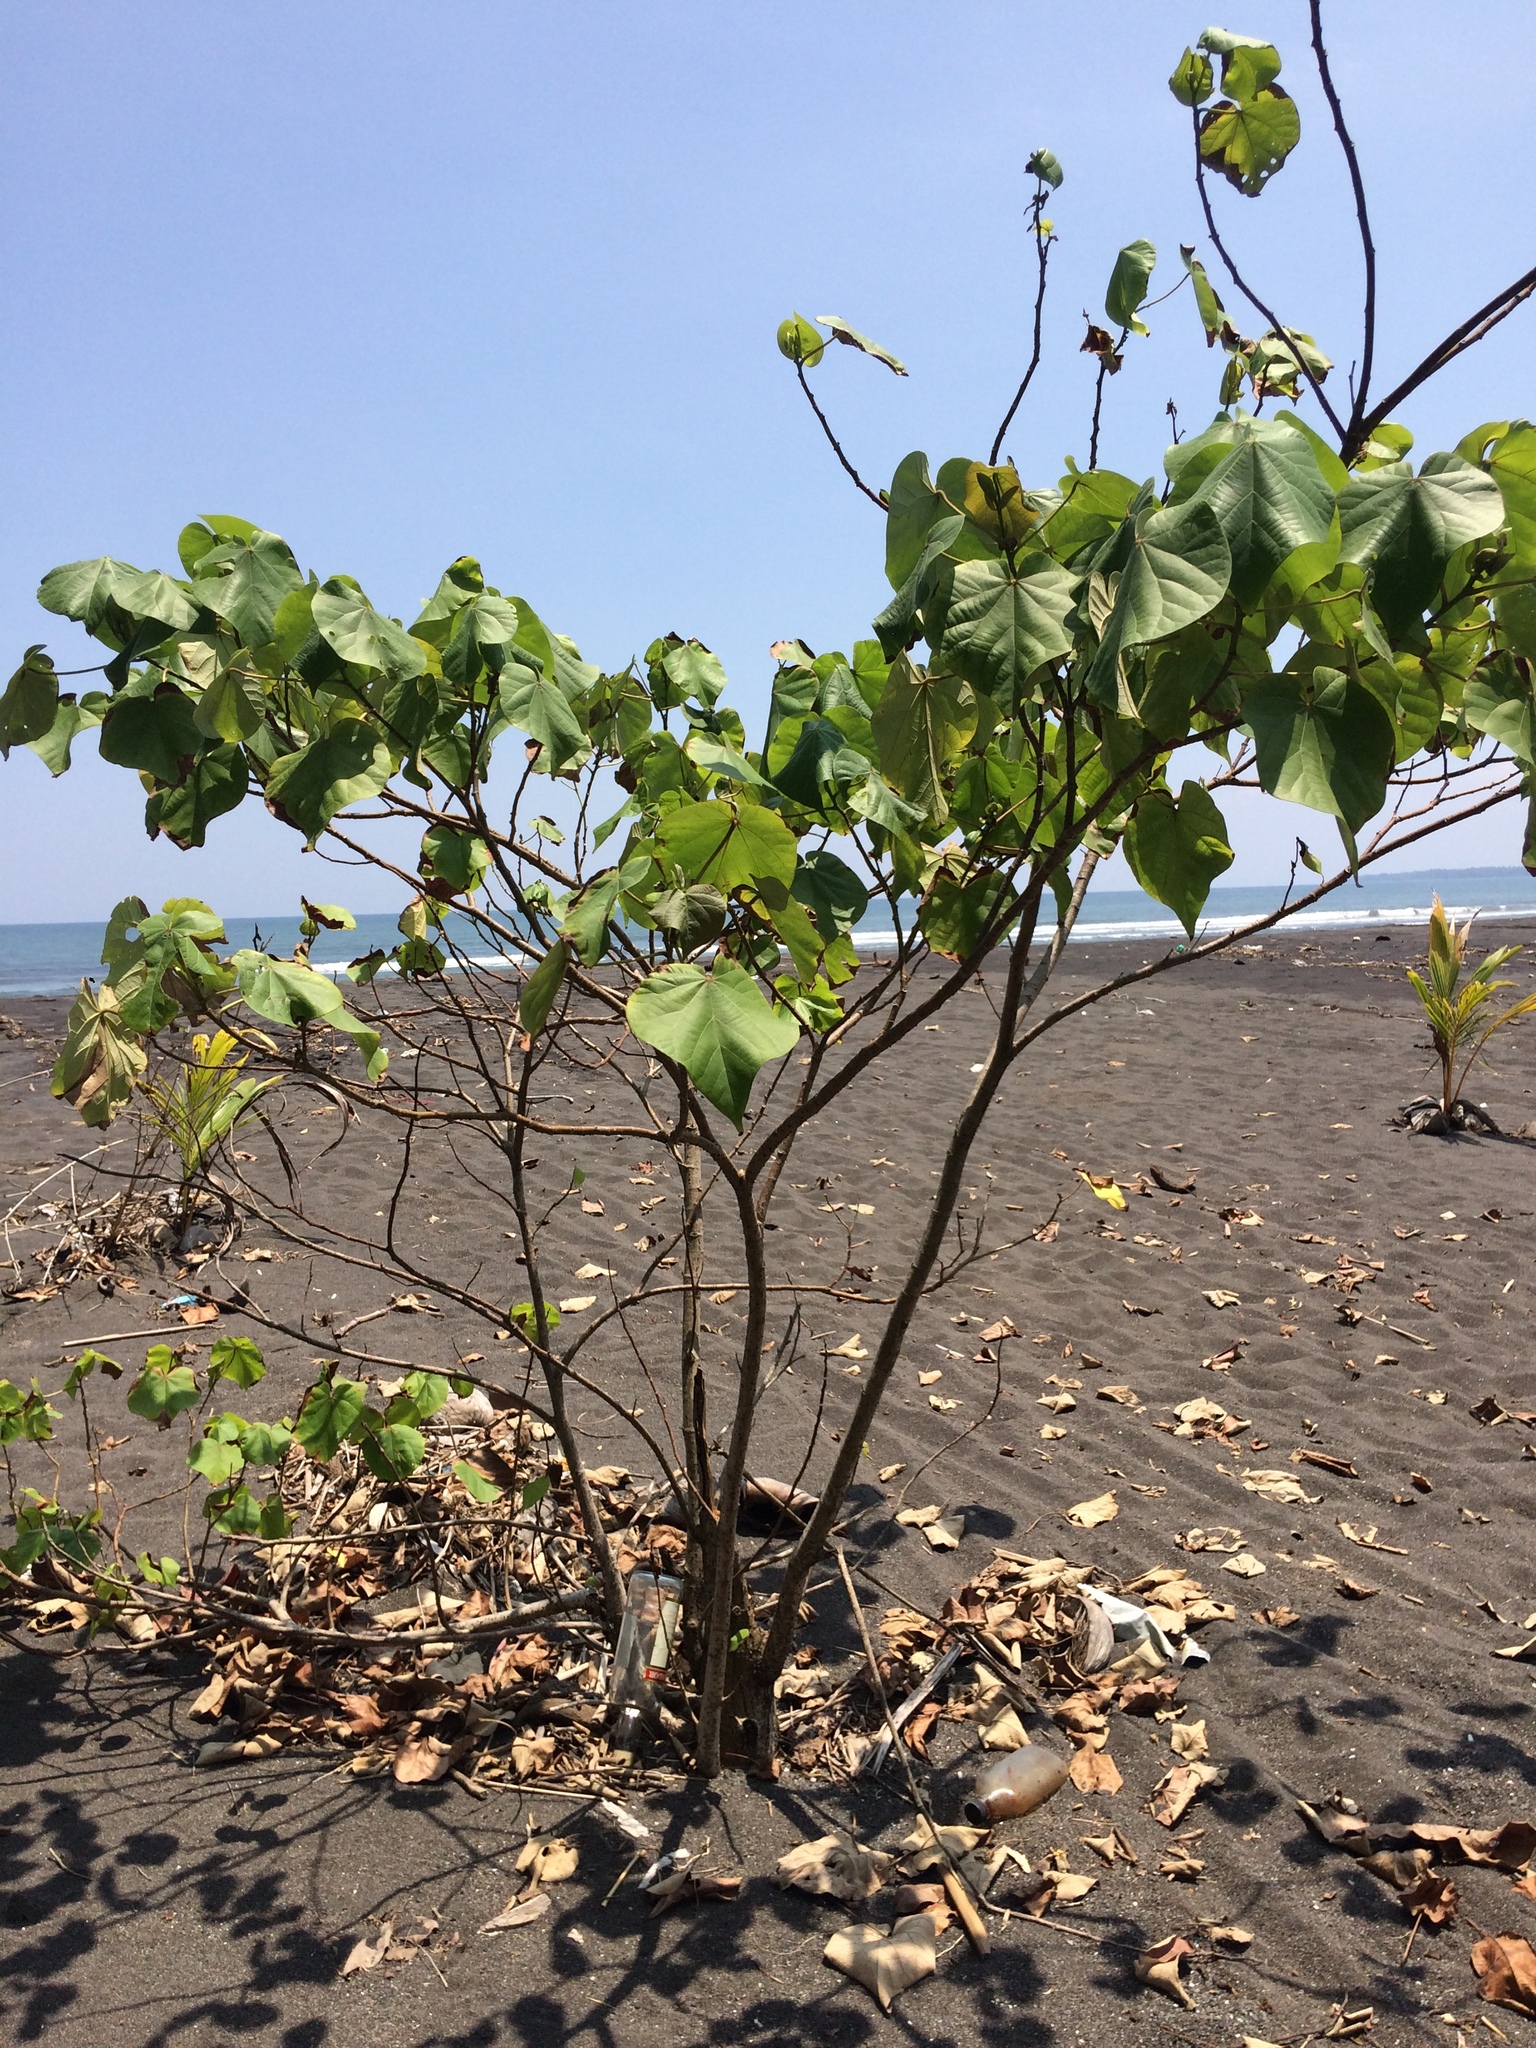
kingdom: Plantae
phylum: Tracheophyta
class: Magnoliopsida
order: Malvales
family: Malvaceae
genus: Talipariti
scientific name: Talipariti tiliaceum
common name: Sea hibiscus
